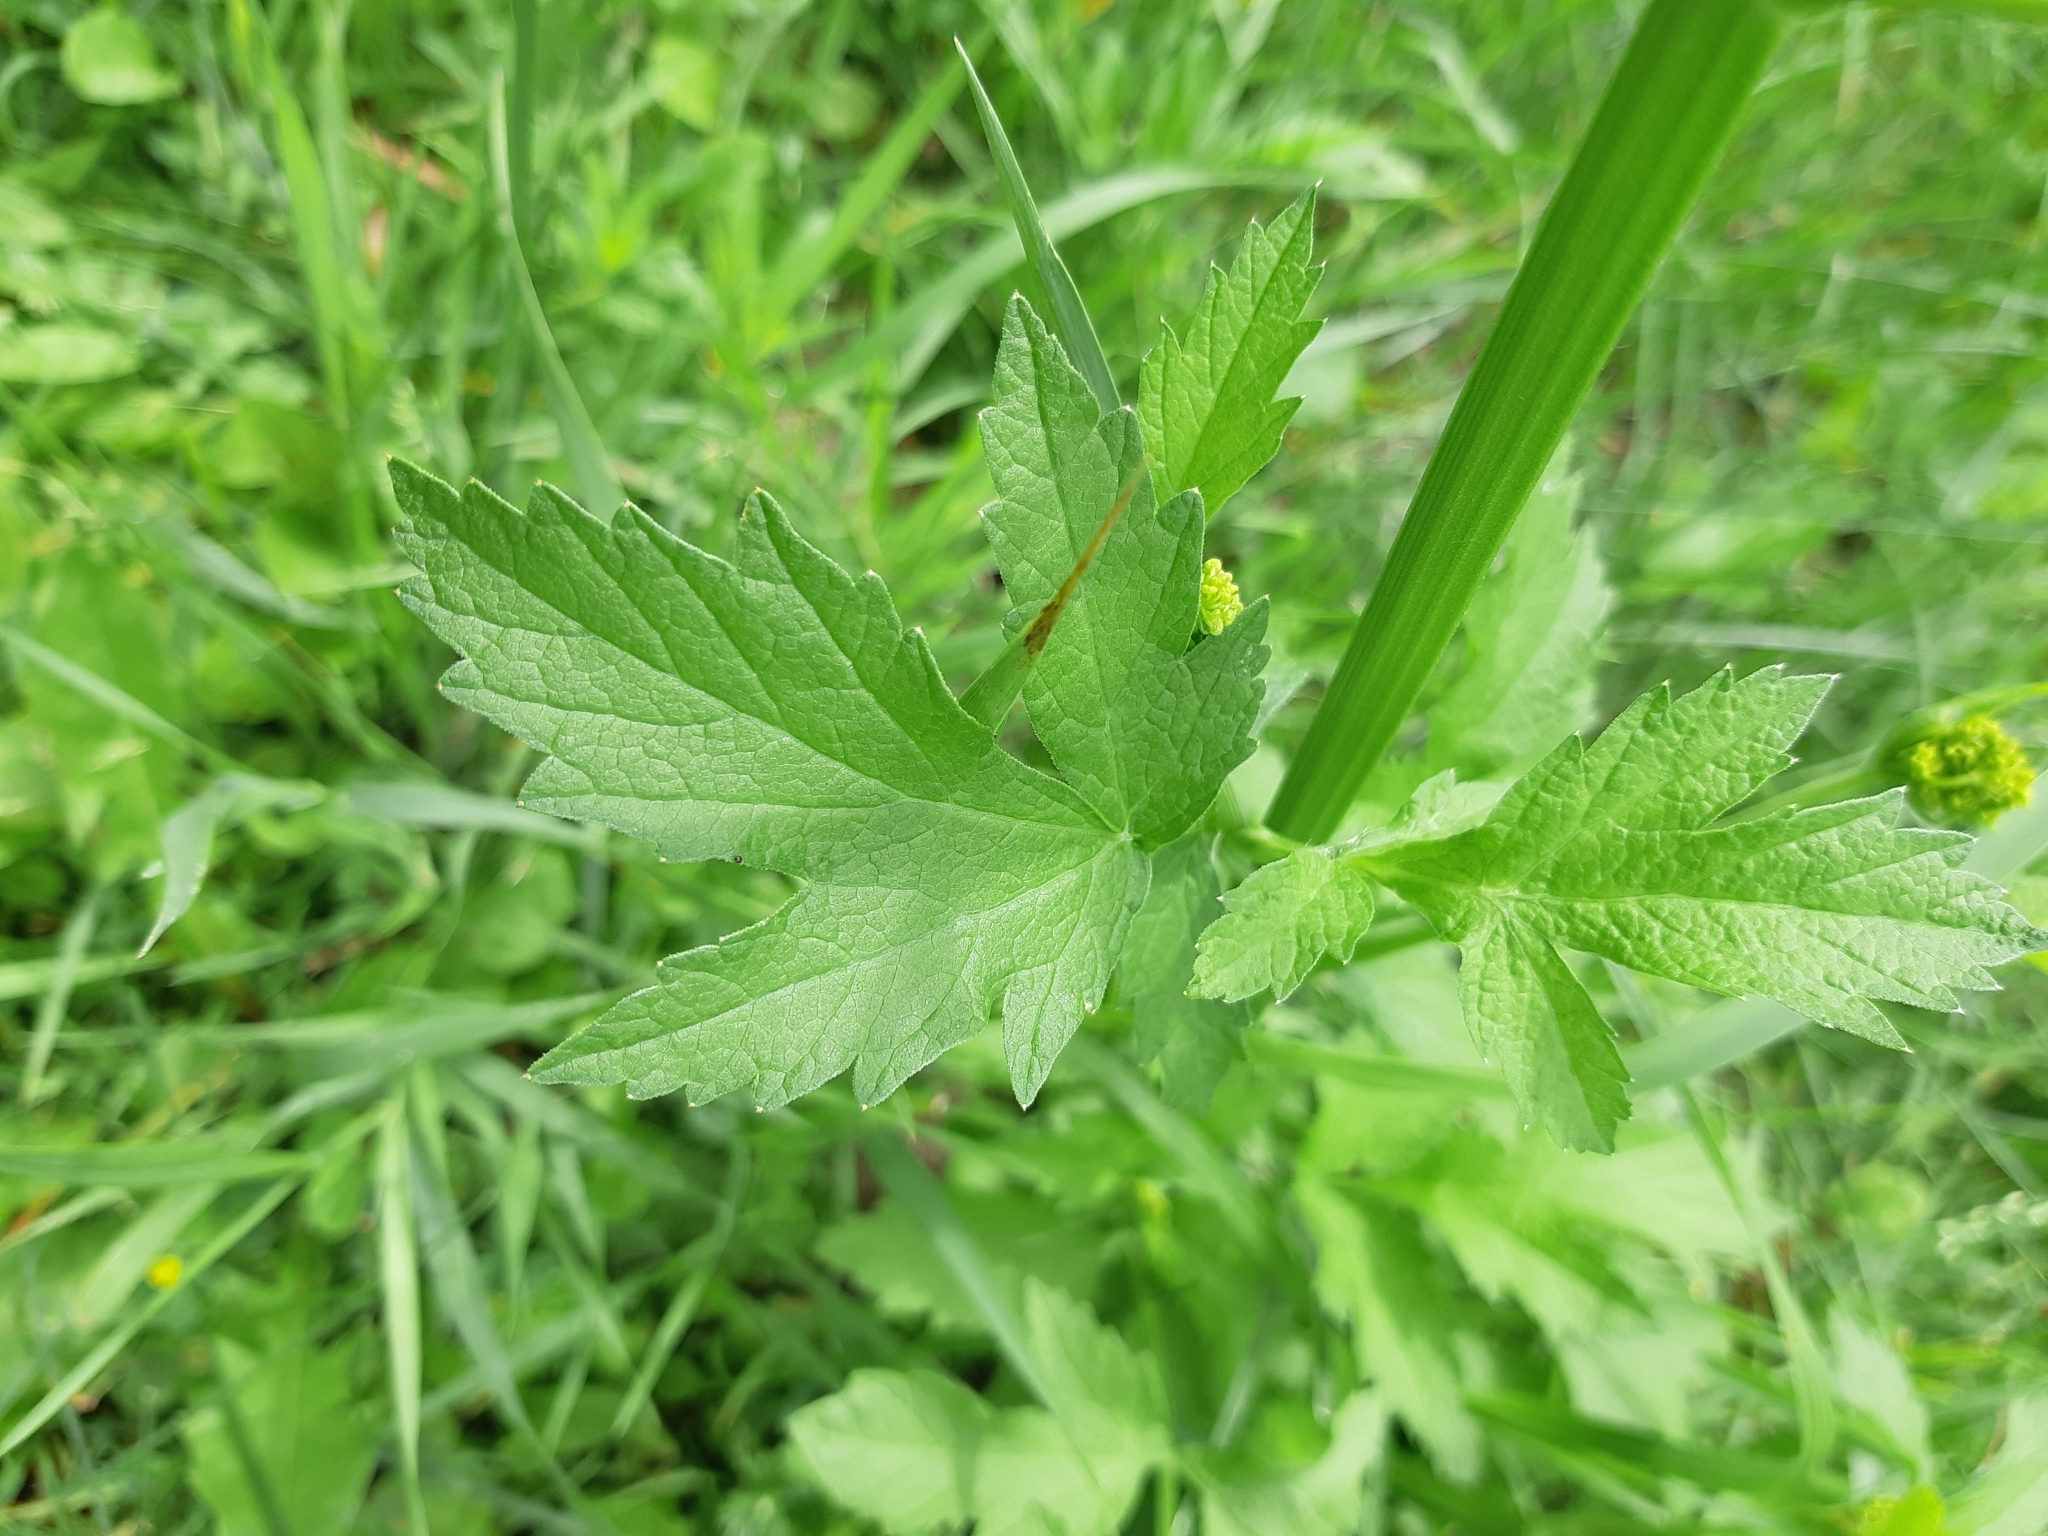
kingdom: Plantae
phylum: Tracheophyta
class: Magnoliopsida
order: Apiales
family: Apiaceae
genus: Pastinaca
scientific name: Pastinaca sativa
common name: Wild parsnip
